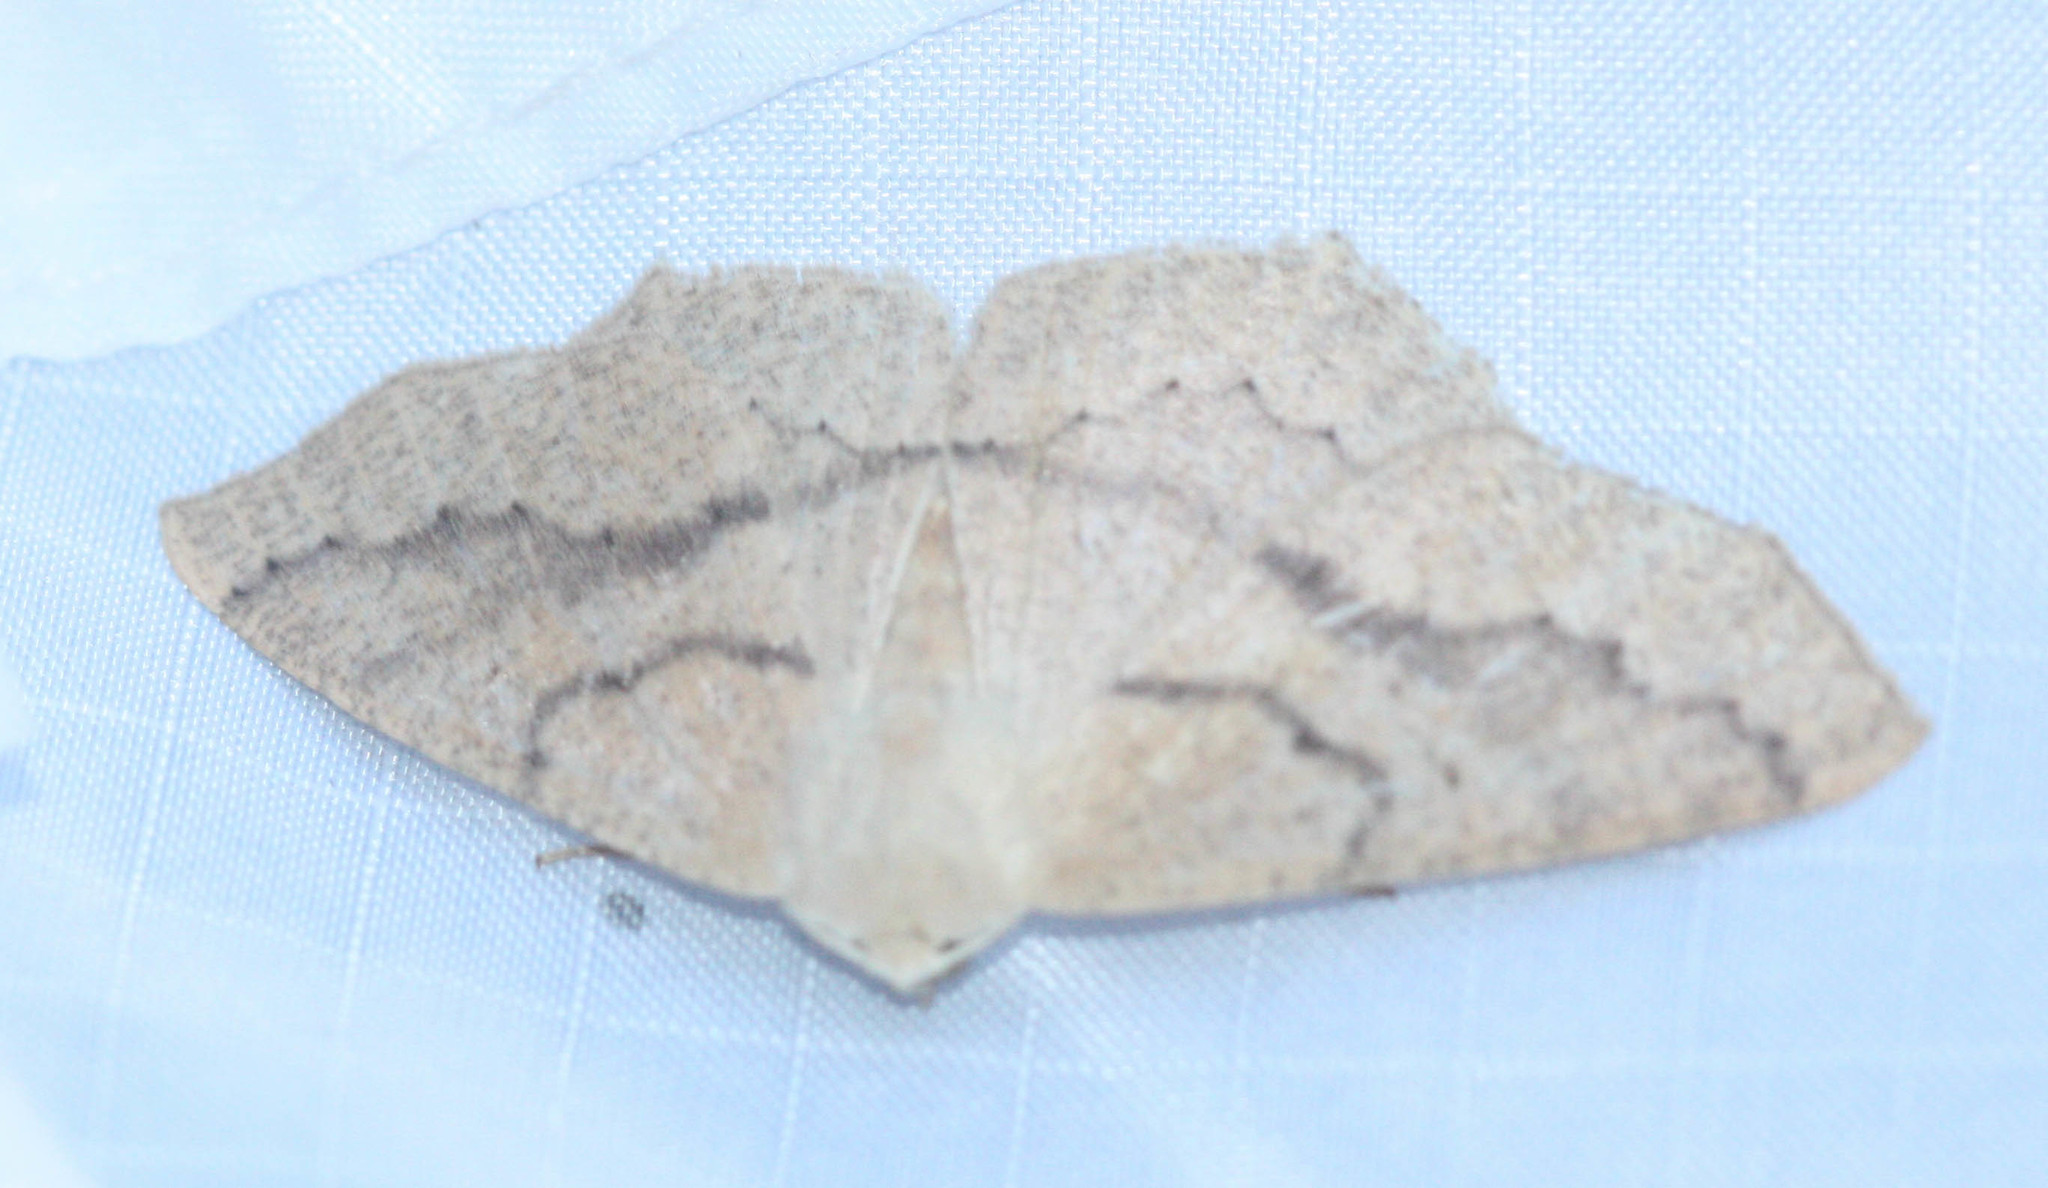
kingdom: Animalia
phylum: Arthropoda
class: Insecta
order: Lepidoptera
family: Geometridae
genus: Sabulodes
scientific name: Sabulodes aegrotata
